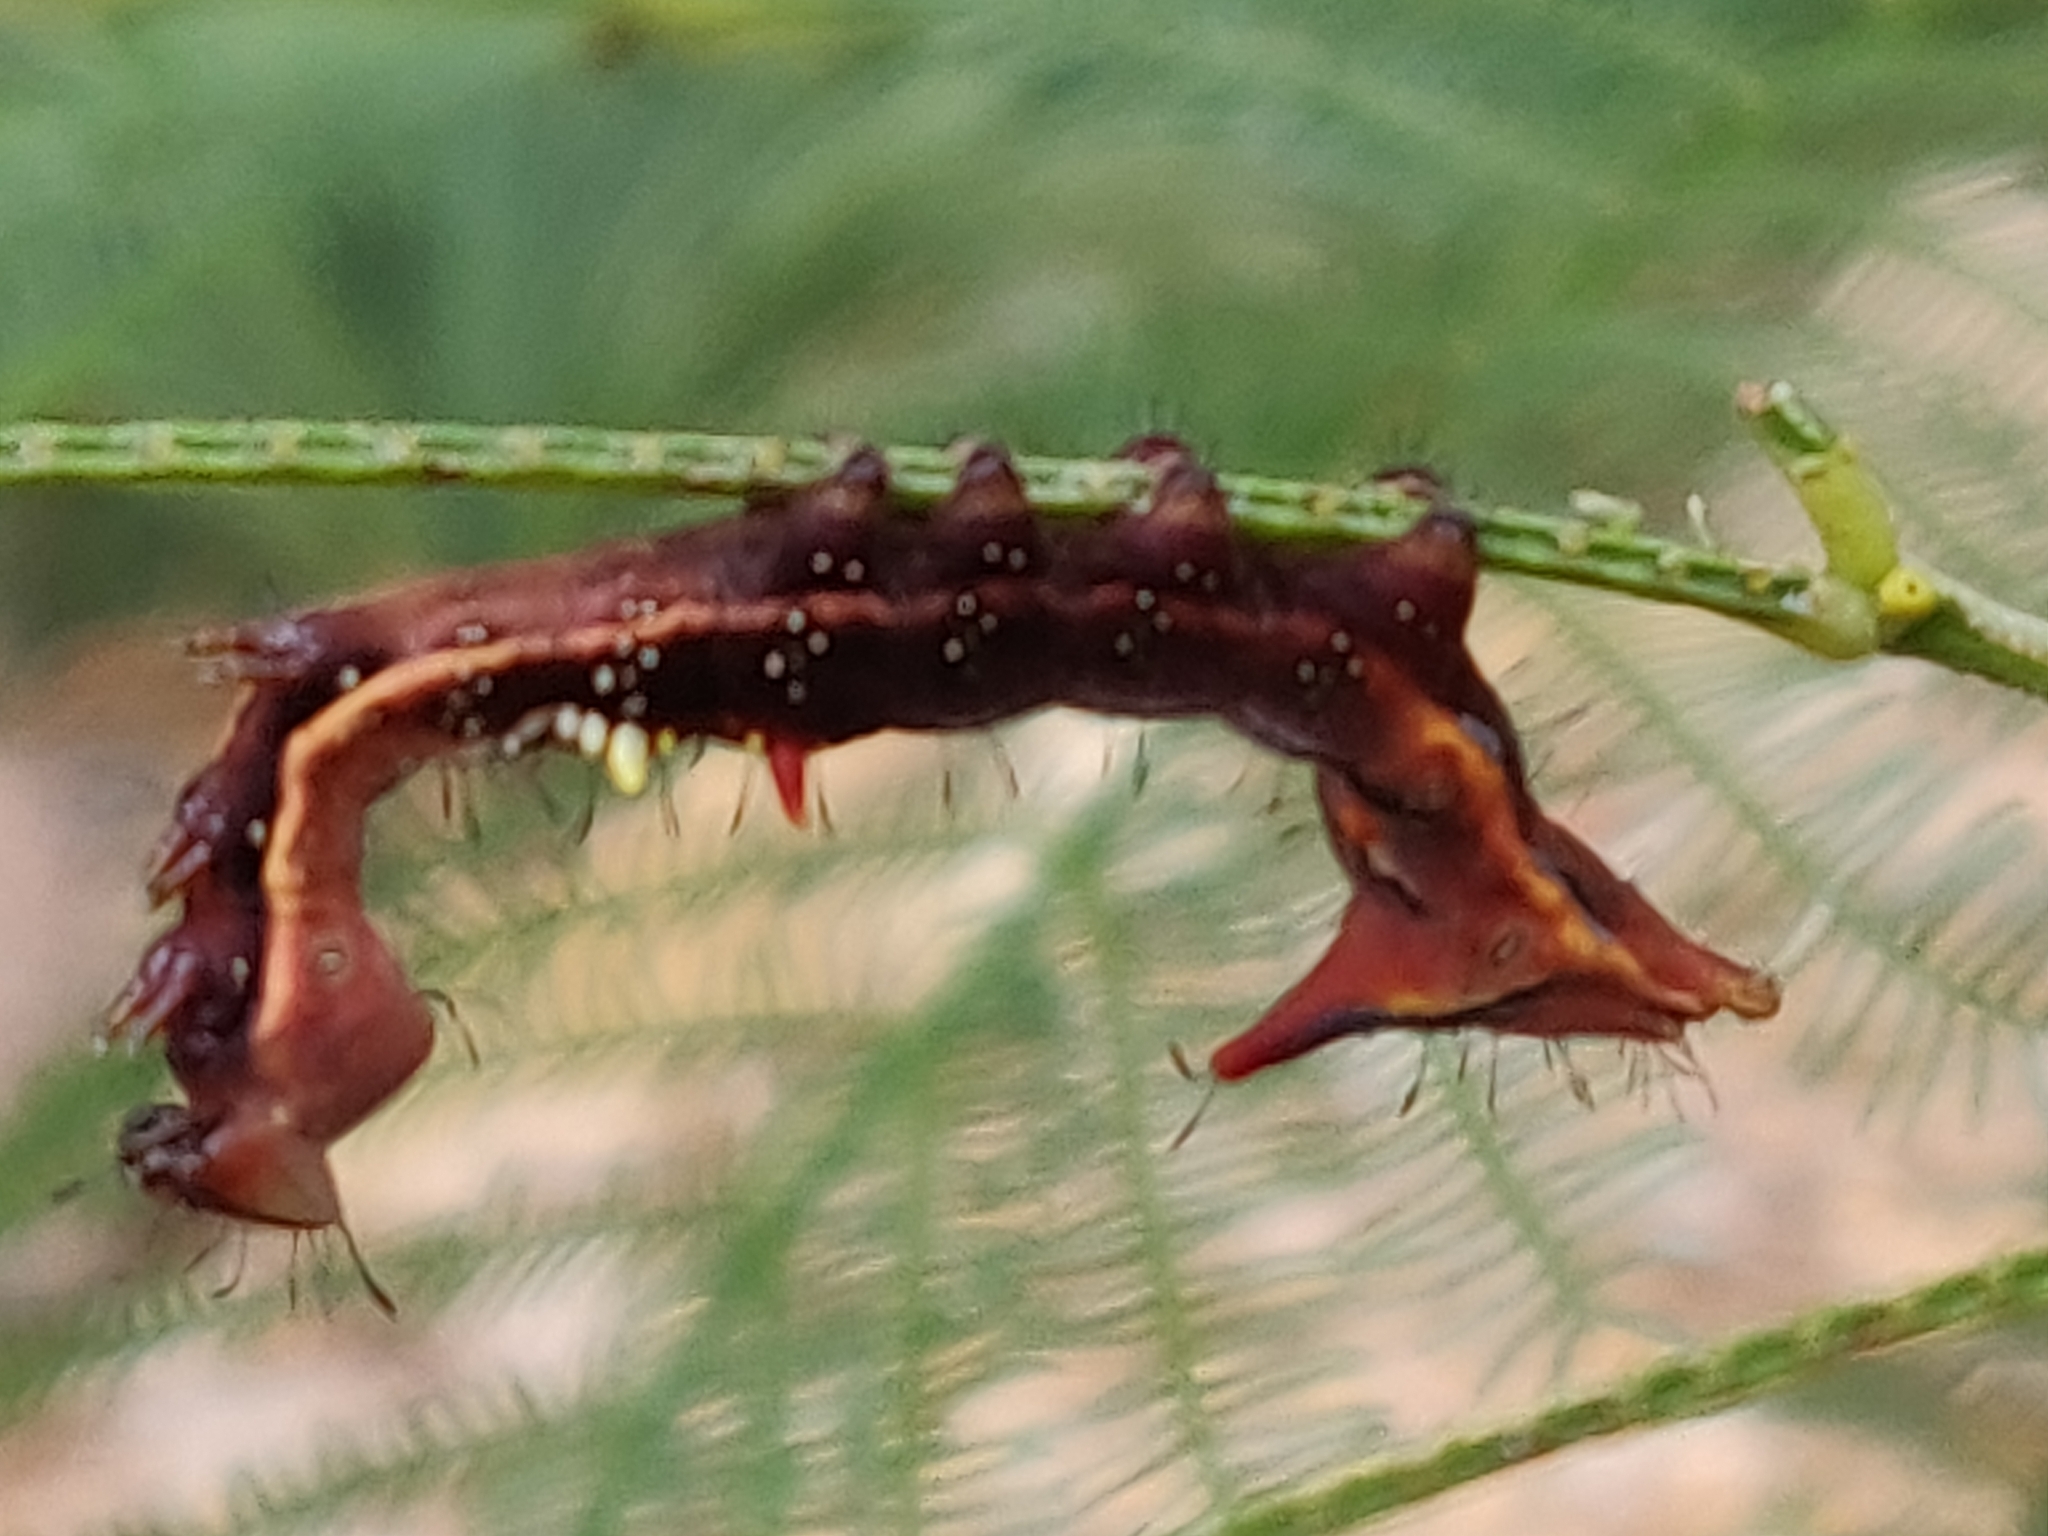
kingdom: Animalia
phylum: Arthropoda
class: Insecta
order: Lepidoptera
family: Notodontidae
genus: Neola
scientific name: Neola semiaurata
